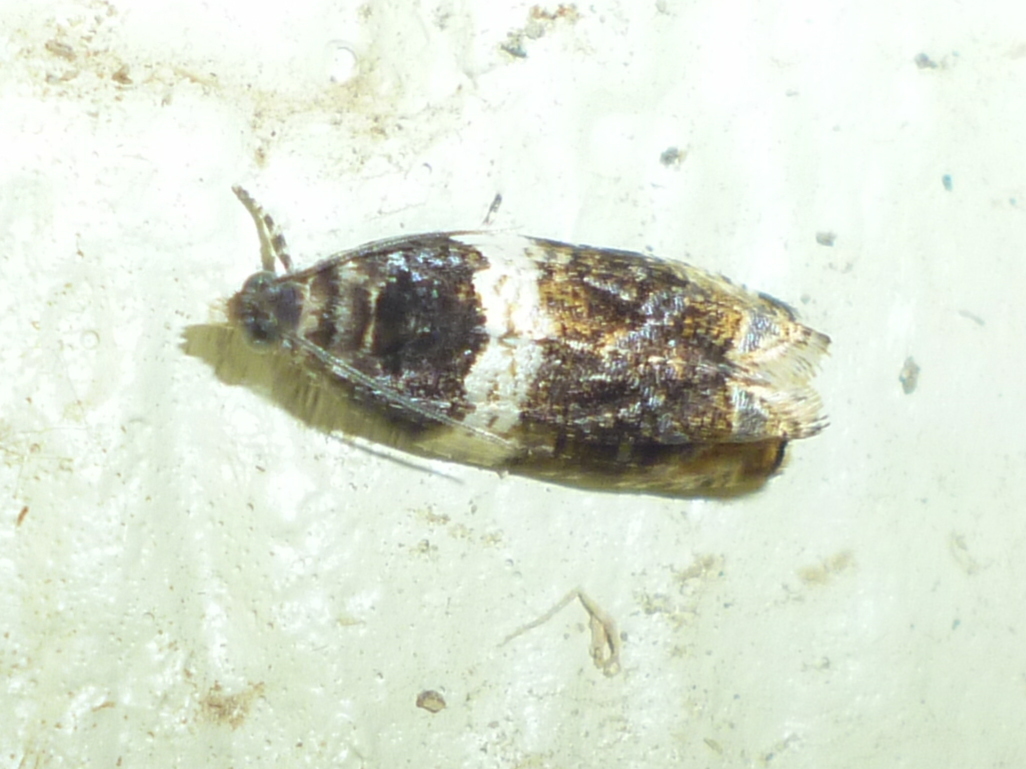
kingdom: Animalia
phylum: Arthropoda
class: Insecta
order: Lepidoptera
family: Tortricidae
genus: Olethreutes
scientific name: Olethreutes fasciatana
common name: Banded olethreutes moth
